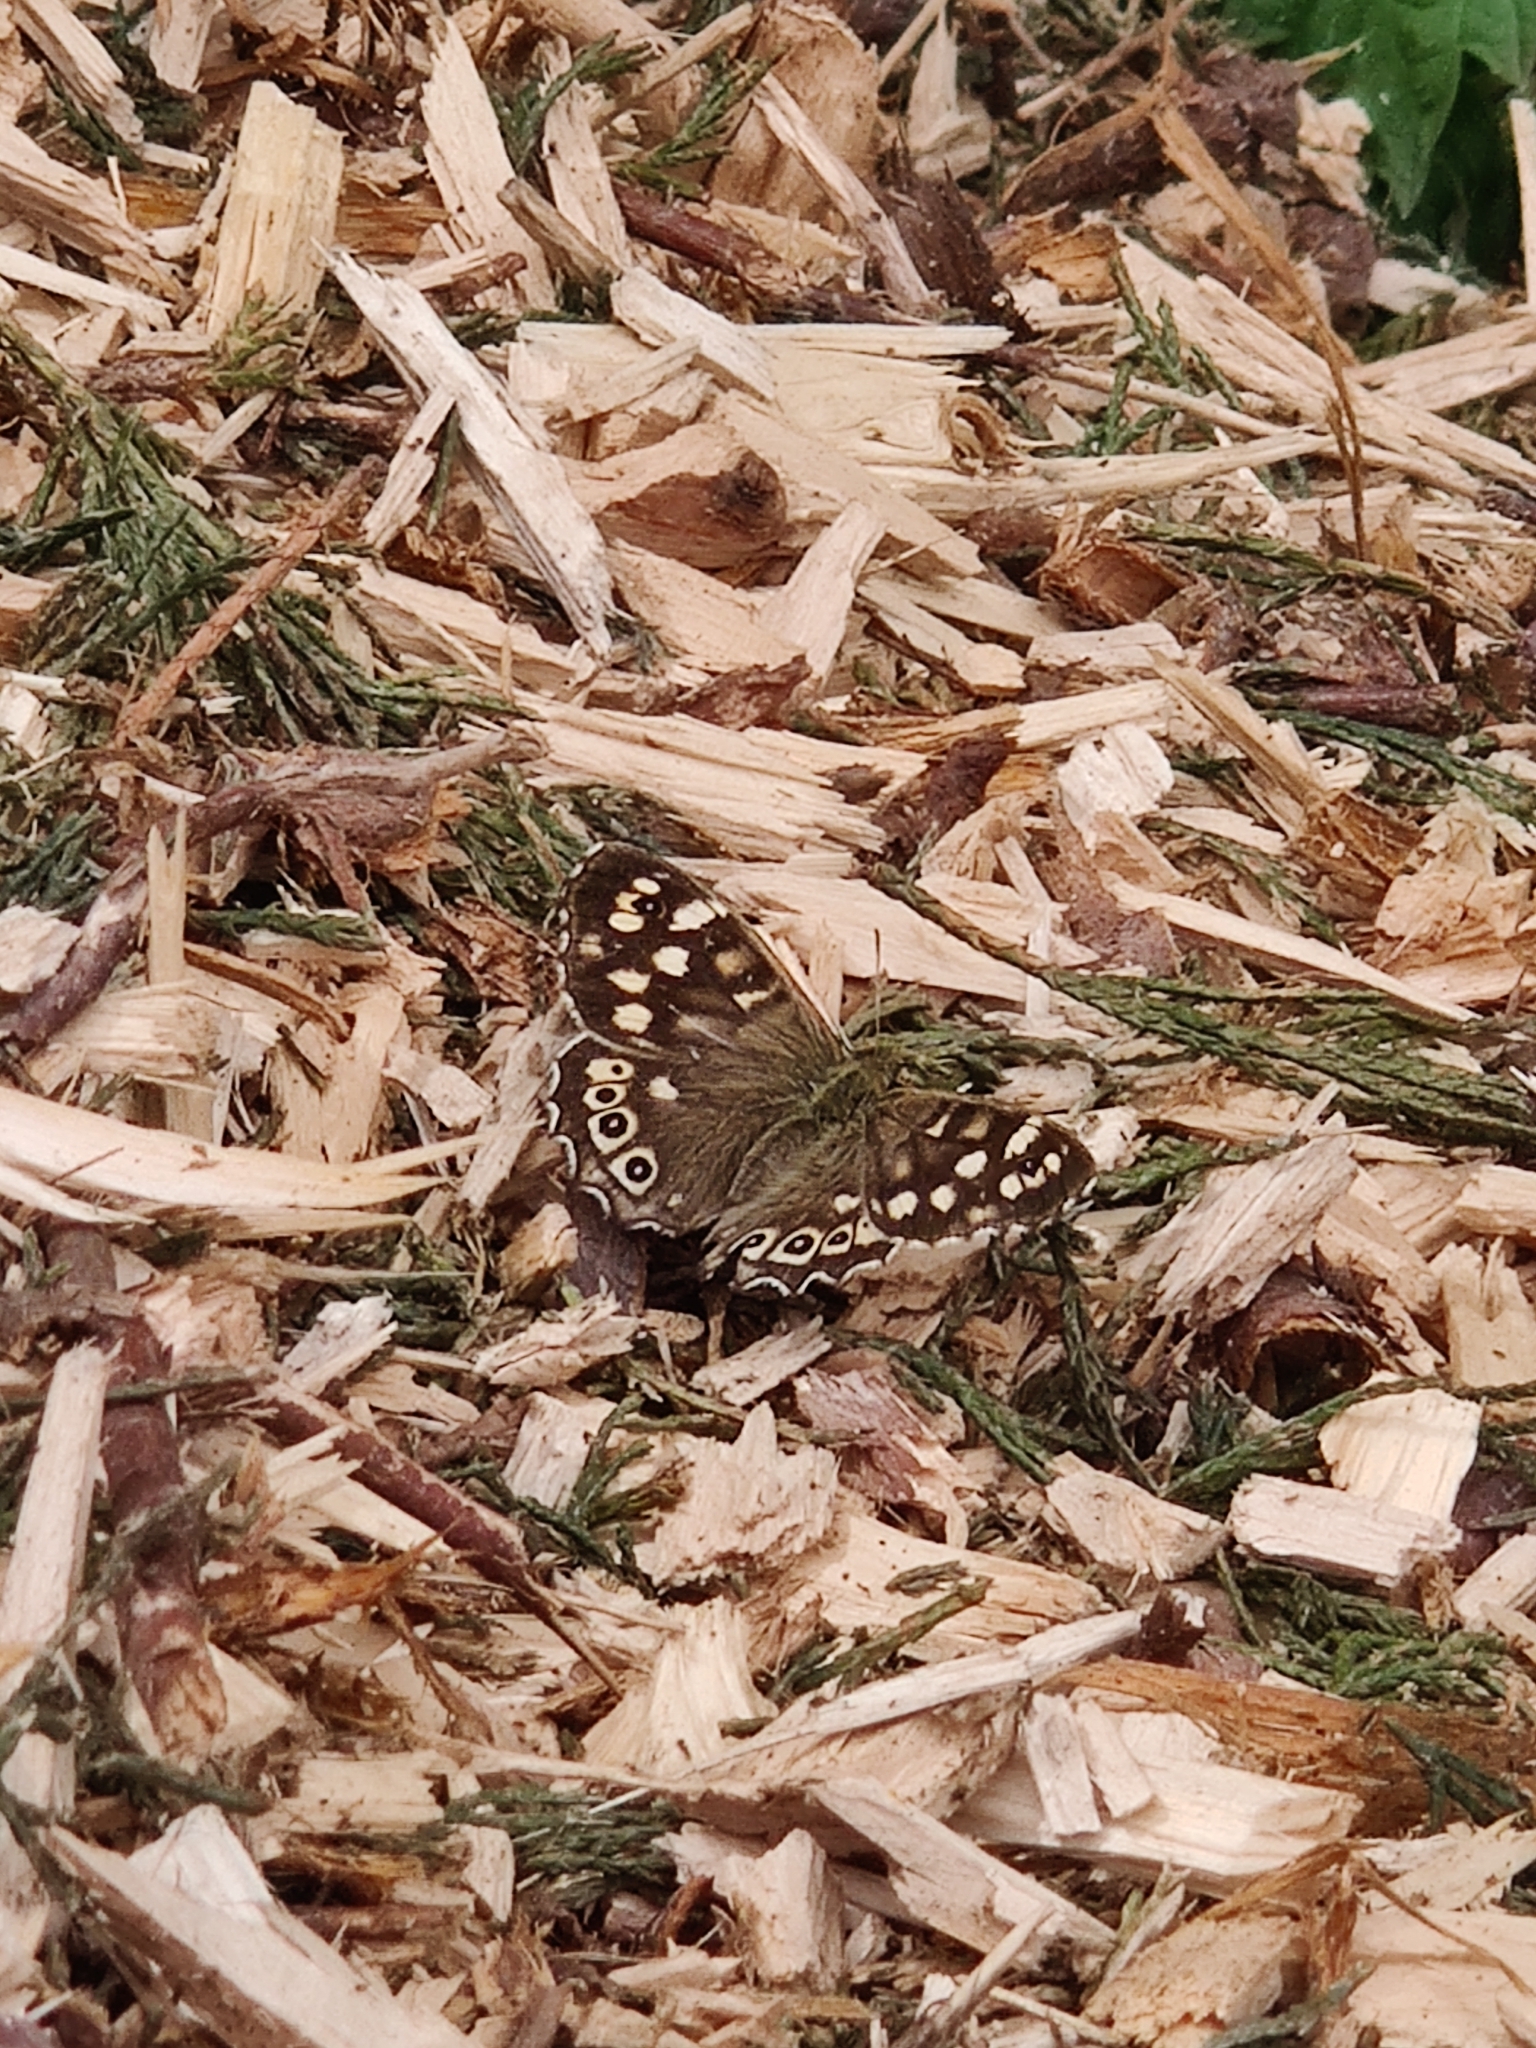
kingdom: Animalia
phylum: Arthropoda
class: Insecta
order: Lepidoptera
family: Nymphalidae
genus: Pararge
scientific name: Pararge aegeria
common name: Speckled wood
